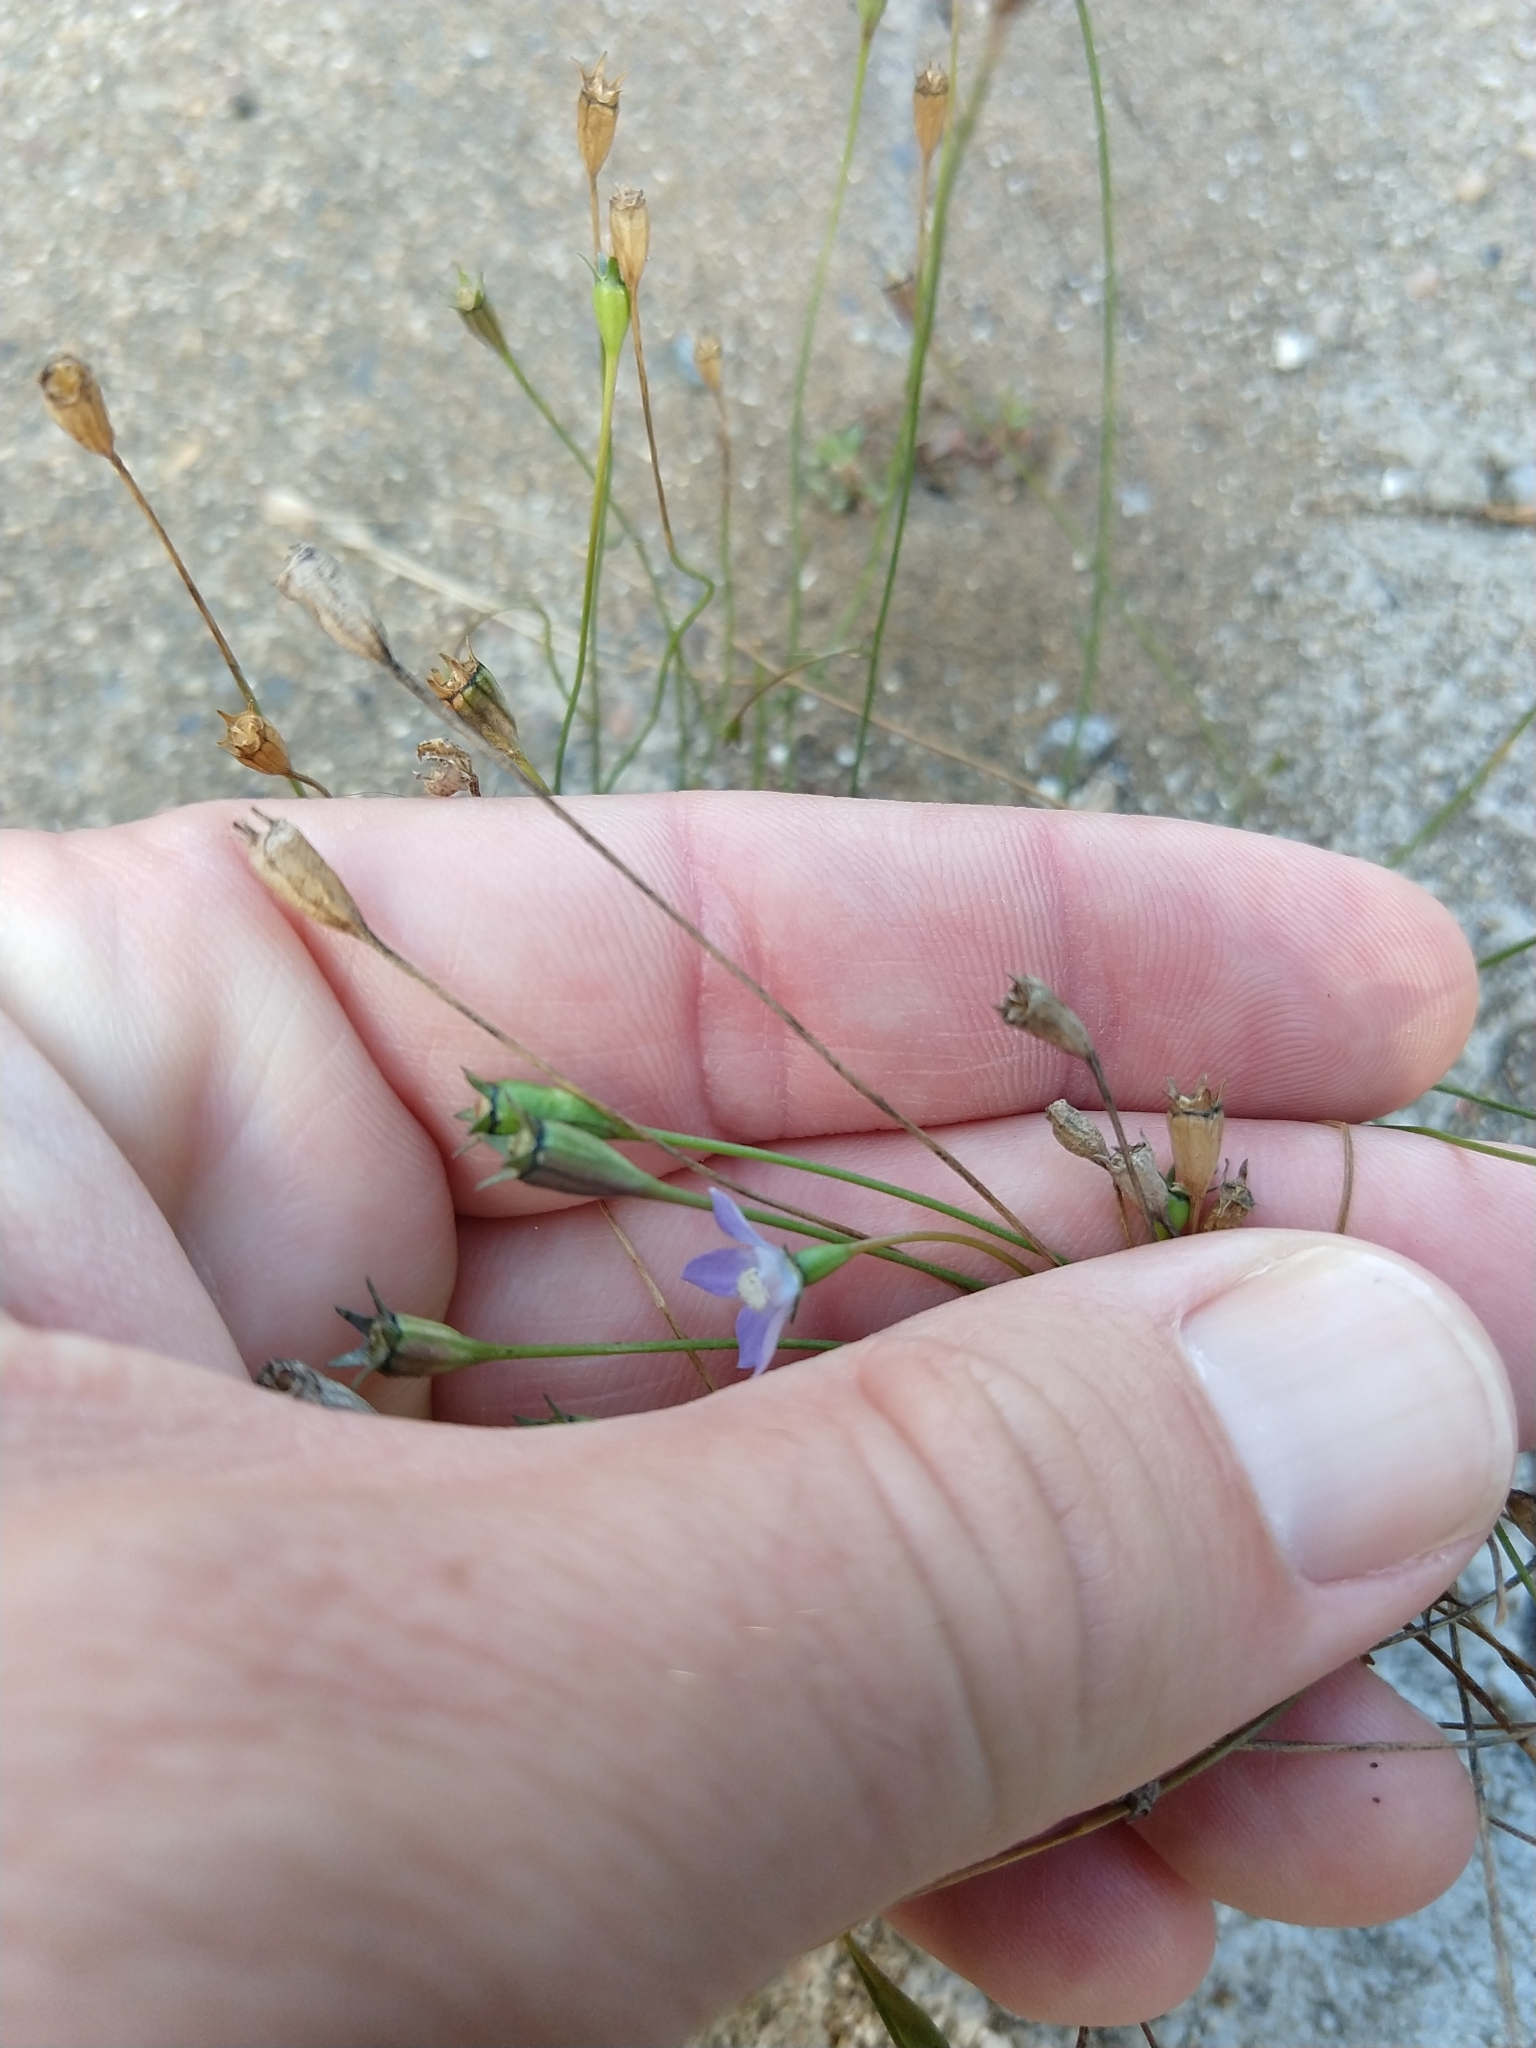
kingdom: Plantae
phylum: Tracheophyta
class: Magnoliopsida
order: Asterales
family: Campanulaceae
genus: Wahlenbergia
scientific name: Wahlenbergia marginata
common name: Southern rockbell
